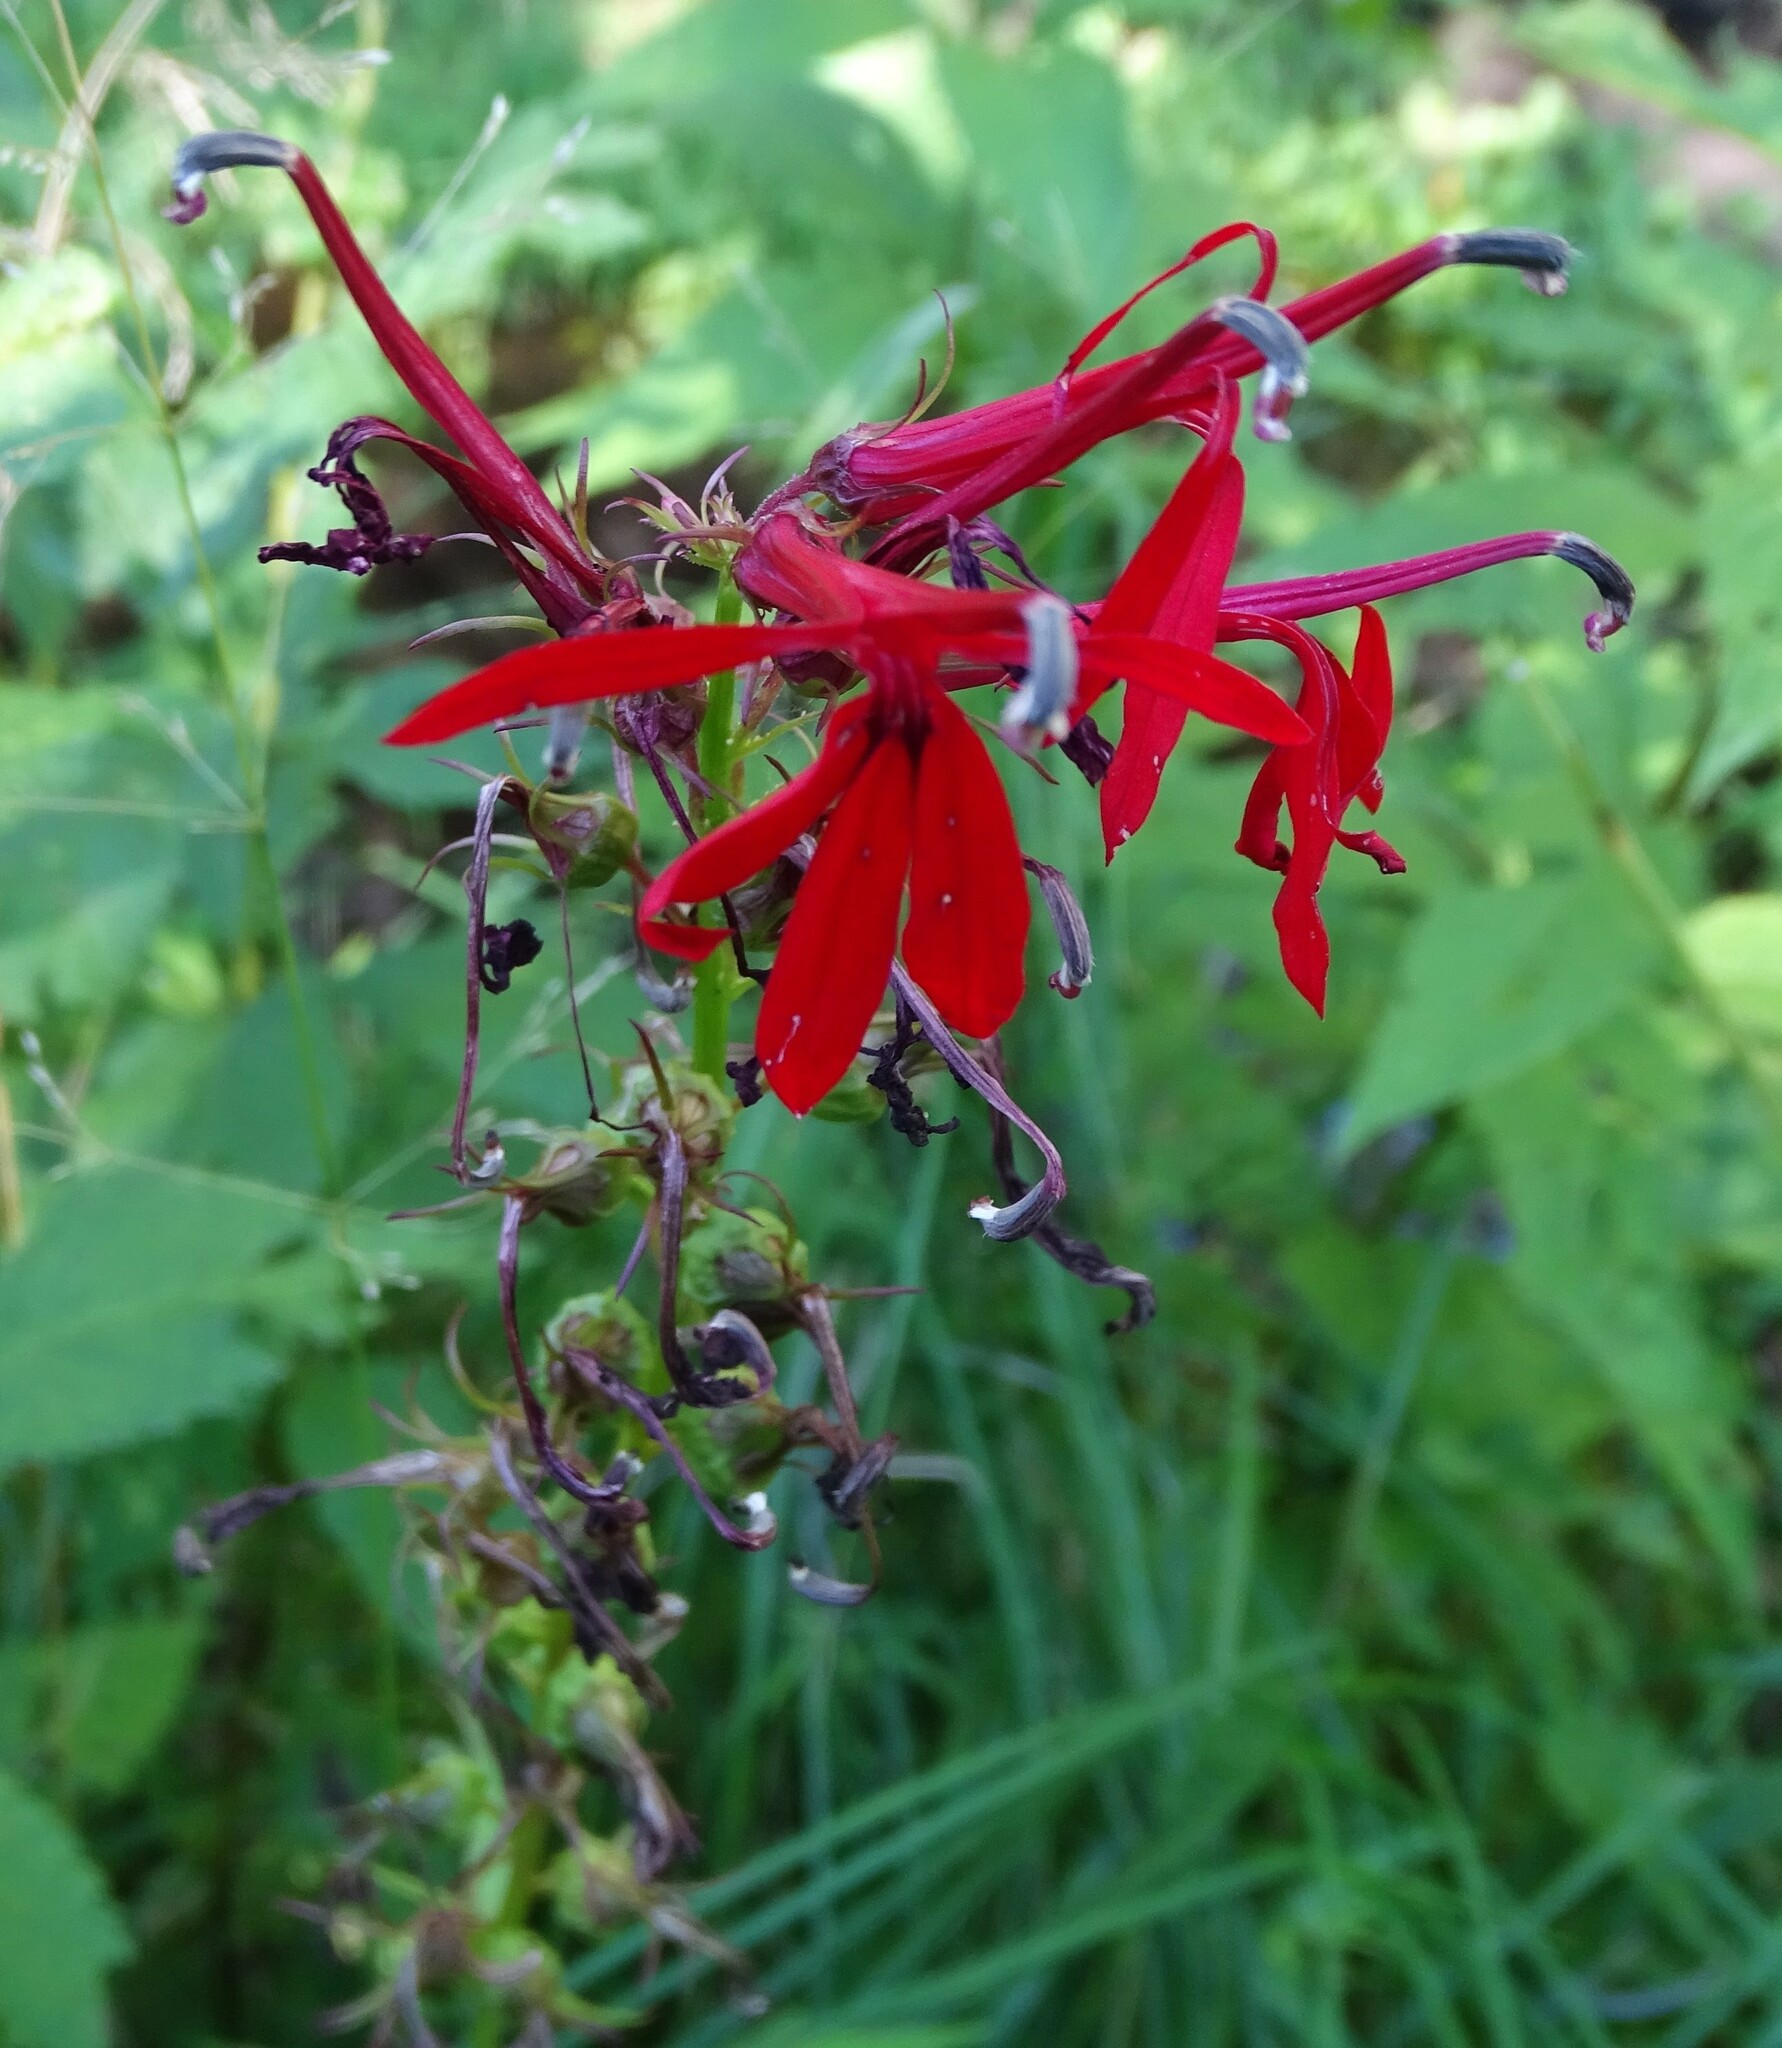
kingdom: Plantae
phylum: Tracheophyta
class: Magnoliopsida
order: Asterales
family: Campanulaceae
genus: Lobelia
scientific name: Lobelia cardinalis
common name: Cardinal flower
